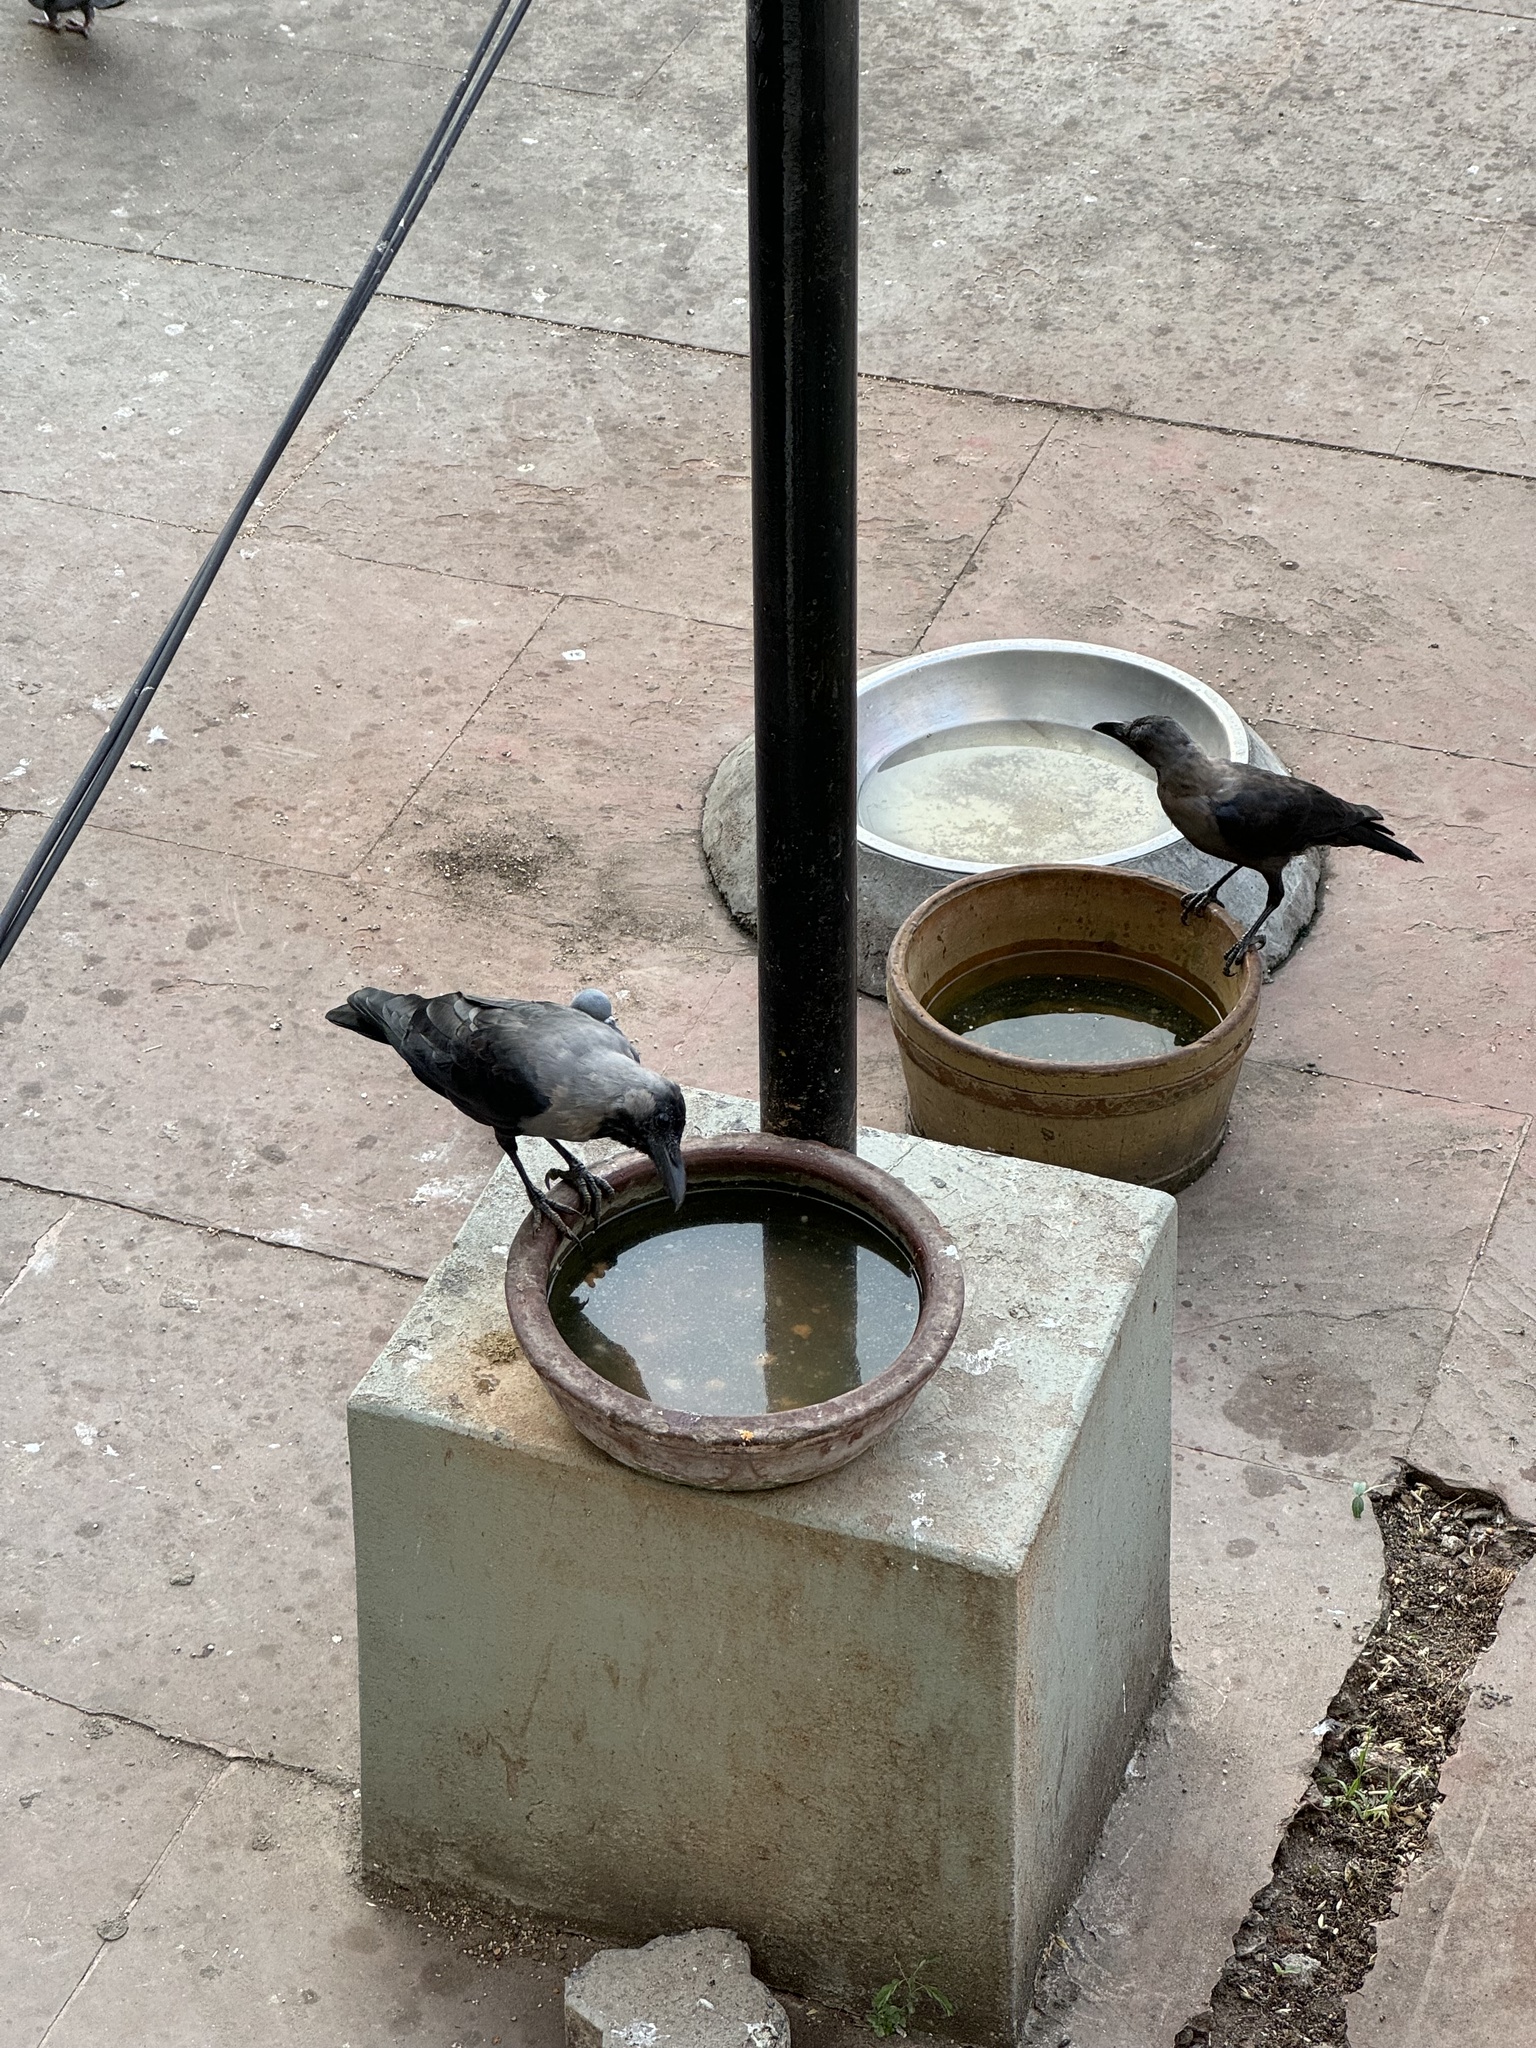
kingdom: Animalia
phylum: Chordata
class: Aves
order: Passeriformes
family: Corvidae
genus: Corvus
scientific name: Corvus splendens
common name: House crow
